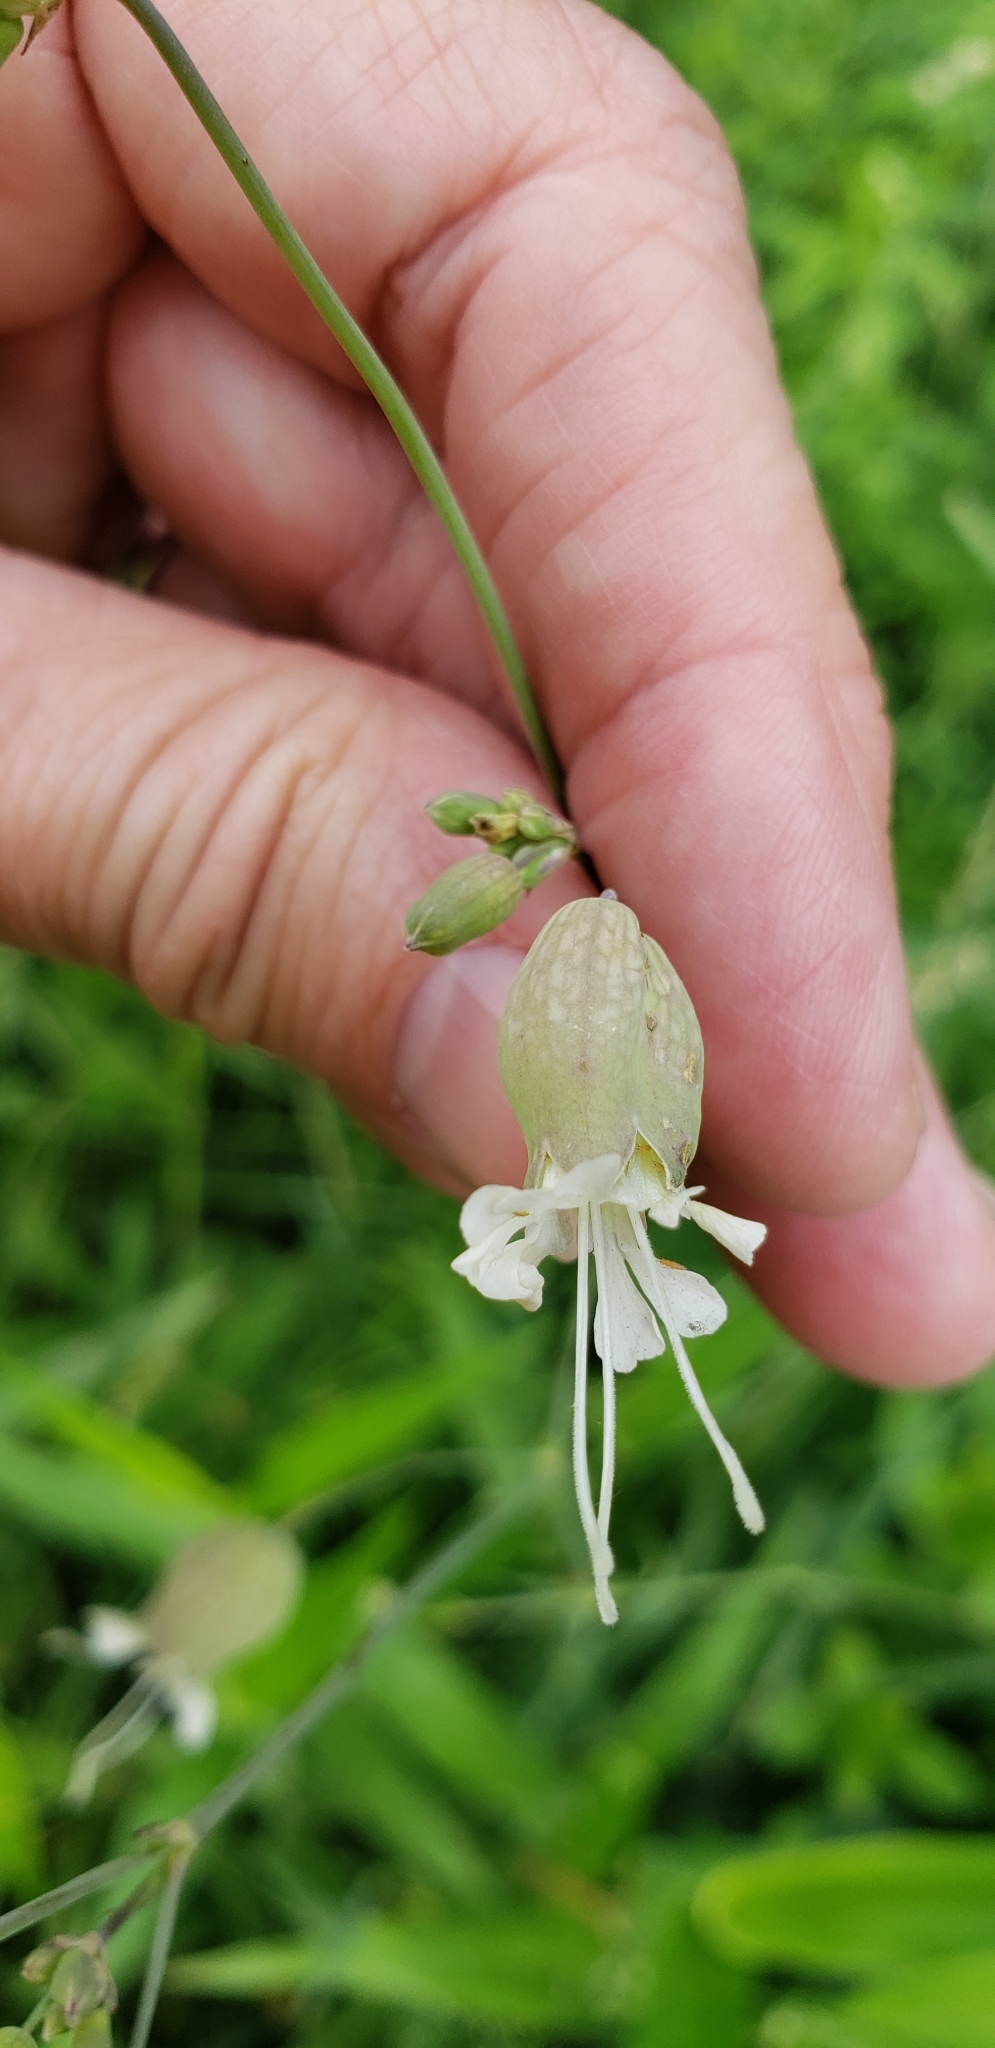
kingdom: Plantae
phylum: Tracheophyta
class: Magnoliopsida
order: Caryophyllales
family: Caryophyllaceae
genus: Silene
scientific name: Silene vulgaris
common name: Bladder campion
